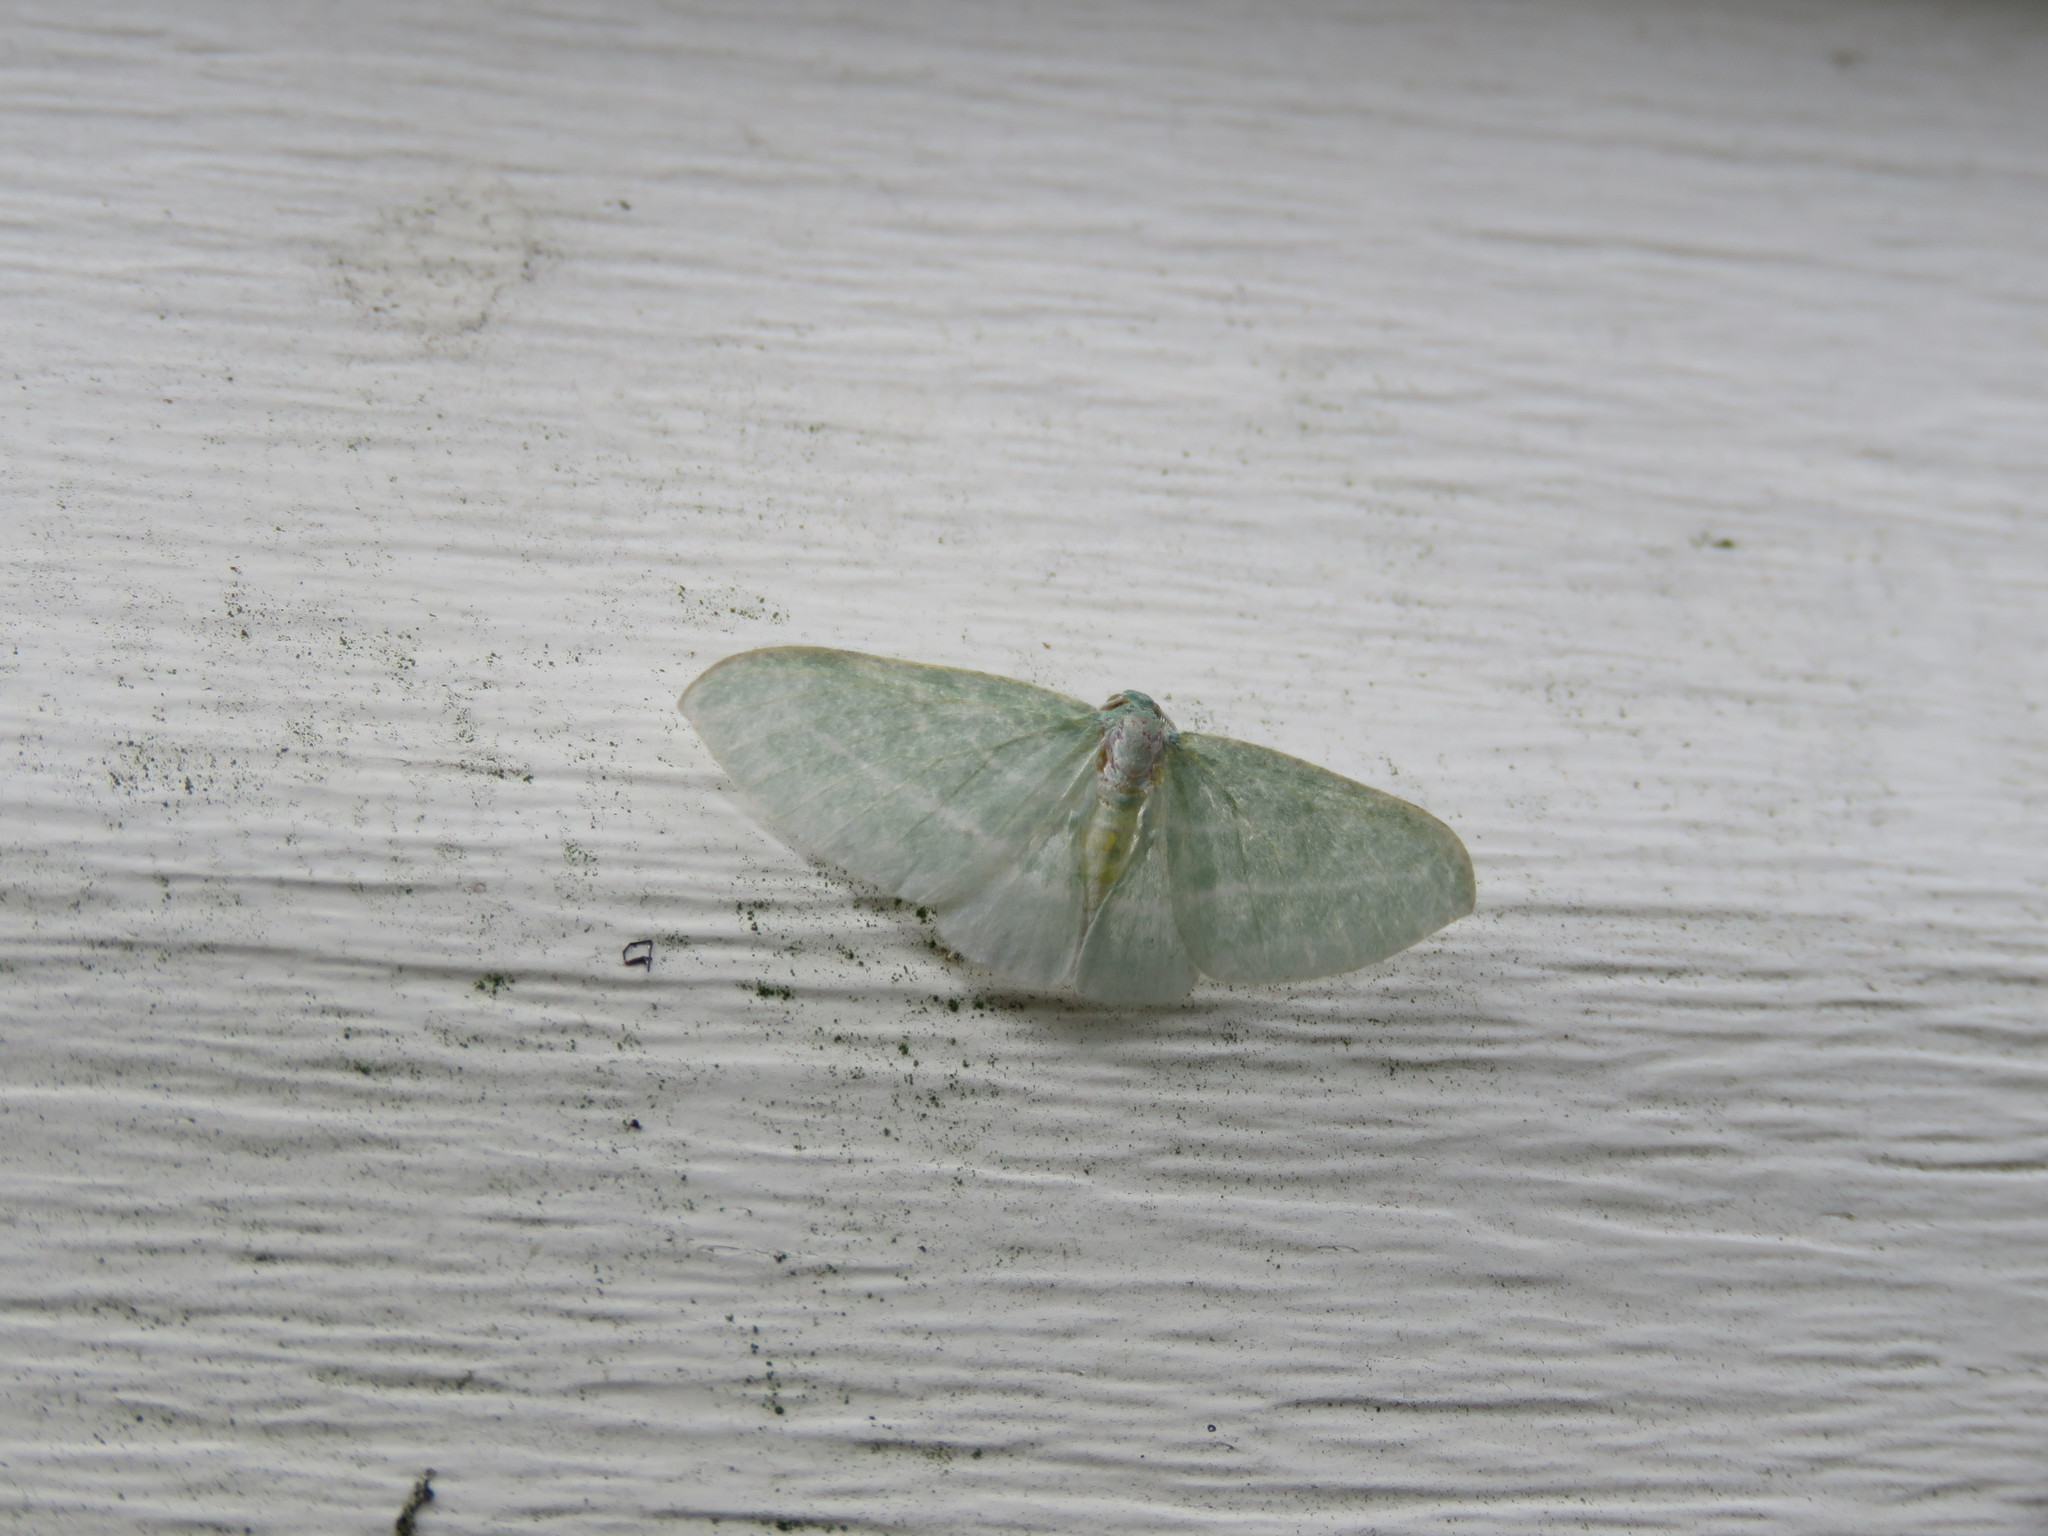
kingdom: Animalia
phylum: Arthropoda
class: Insecta
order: Lepidoptera
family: Geometridae
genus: Dyspteris
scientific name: Dyspteris abortivaria
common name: Bad-wing
